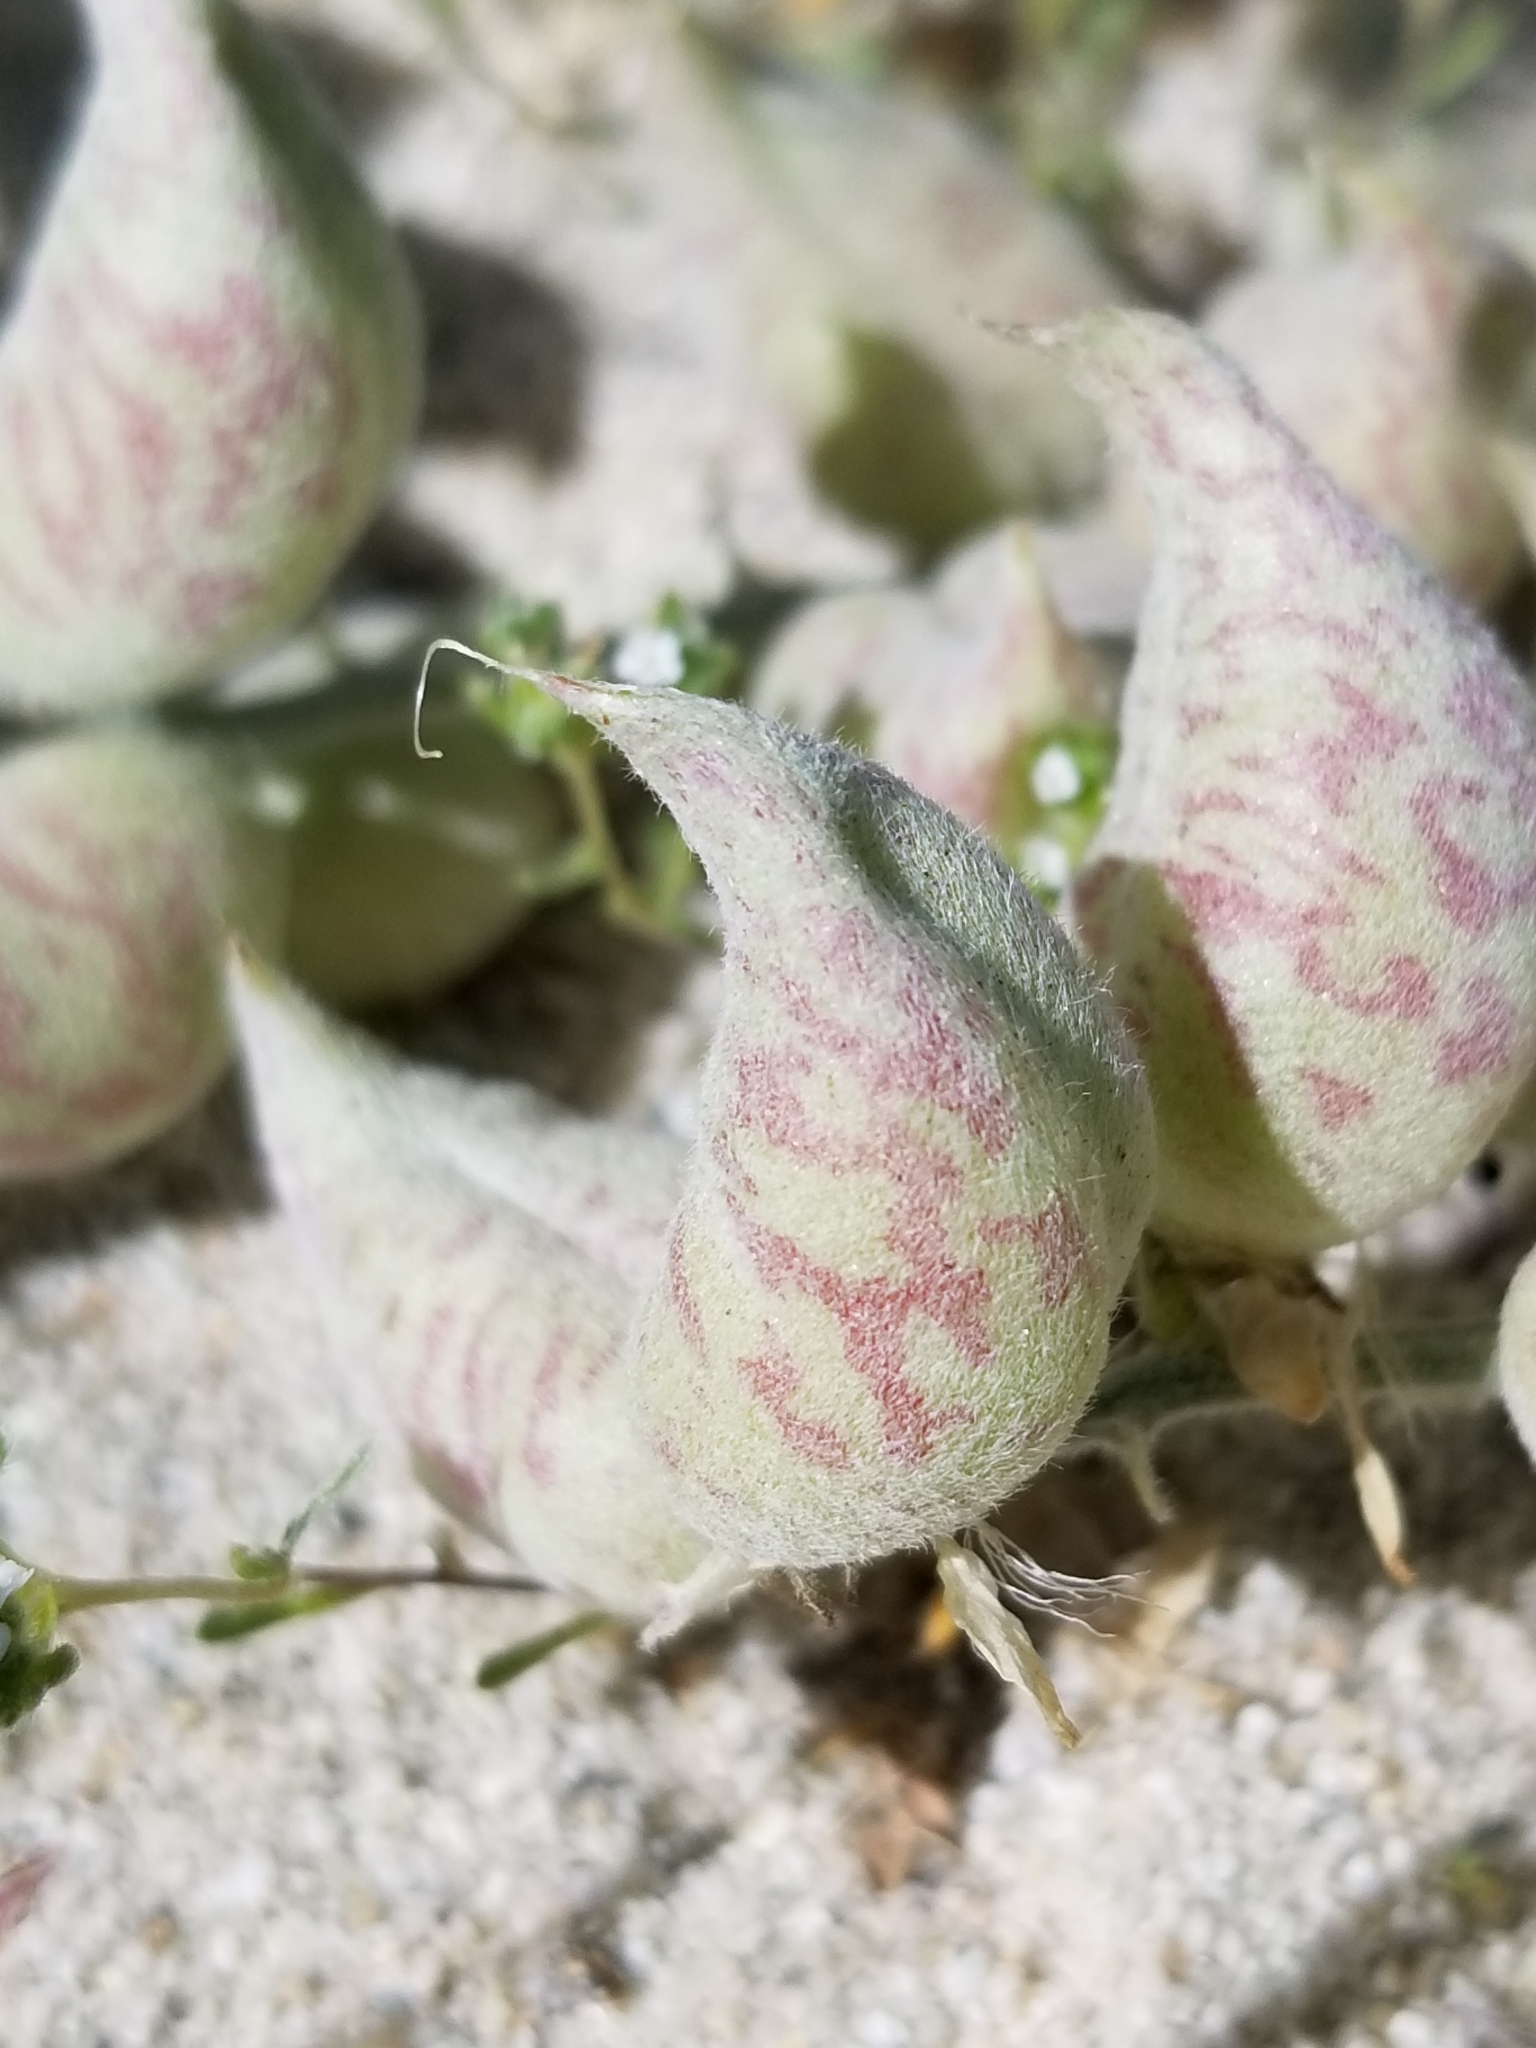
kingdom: Plantae
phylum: Tracheophyta
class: Magnoliopsida
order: Fabales
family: Fabaceae
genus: Astragalus
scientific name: Astragalus lentiginosus
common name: Freckled milkvetch
